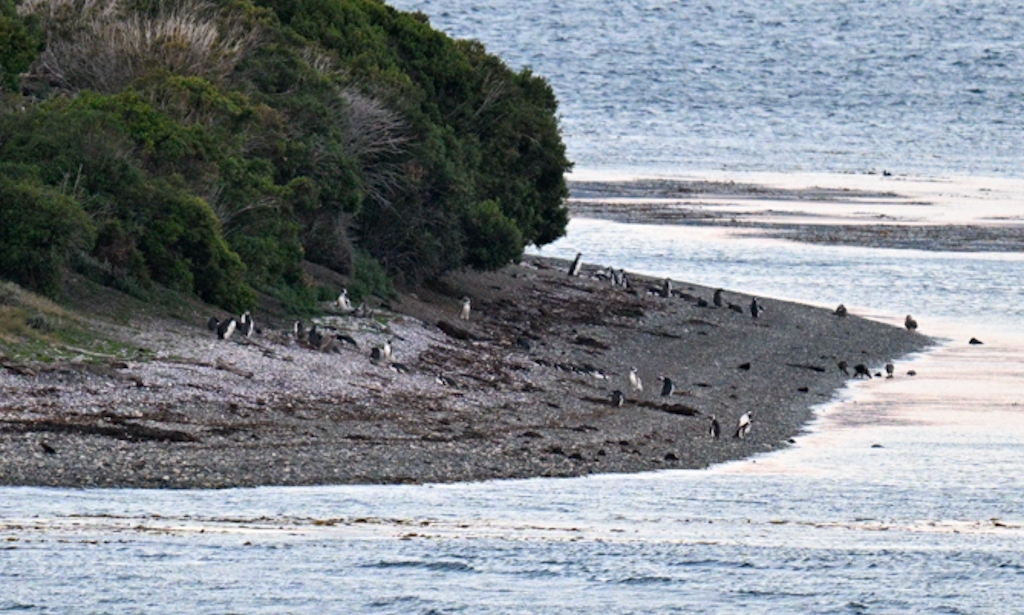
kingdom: Animalia
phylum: Chordata
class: Aves
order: Sphenisciformes
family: Spheniscidae
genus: Spheniscus
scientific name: Spheniscus magellanicus
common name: Magellanic penguin
